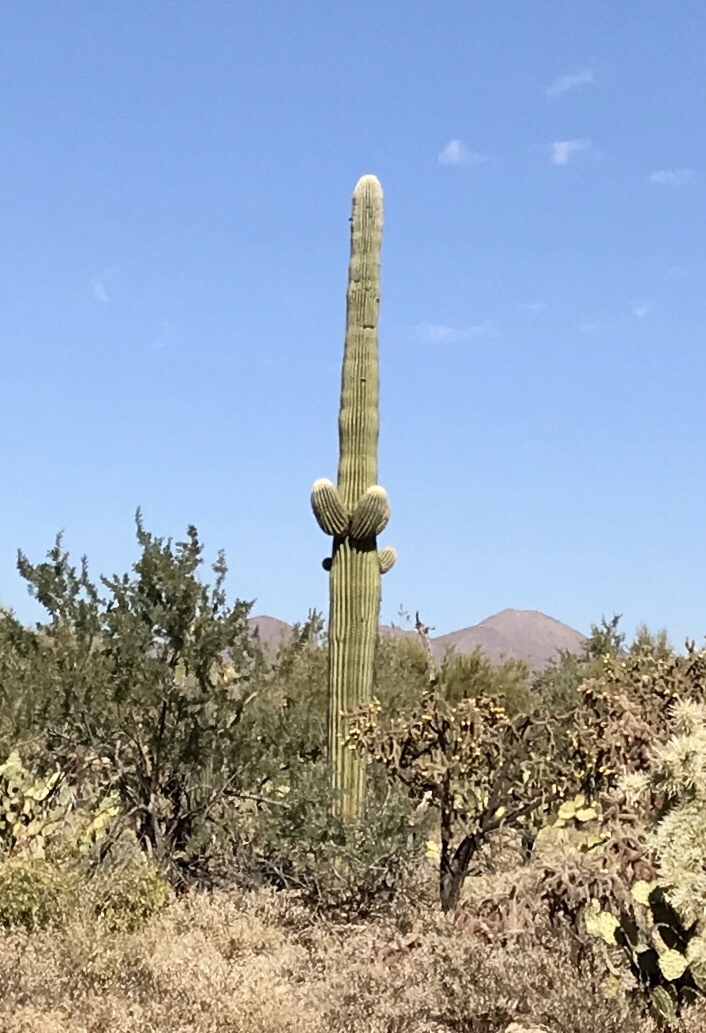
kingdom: Plantae
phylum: Tracheophyta
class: Magnoliopsida
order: Caryophyllales
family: Cactaceae
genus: Carnegiea
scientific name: Carnegiea gigantea
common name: Saguaro
